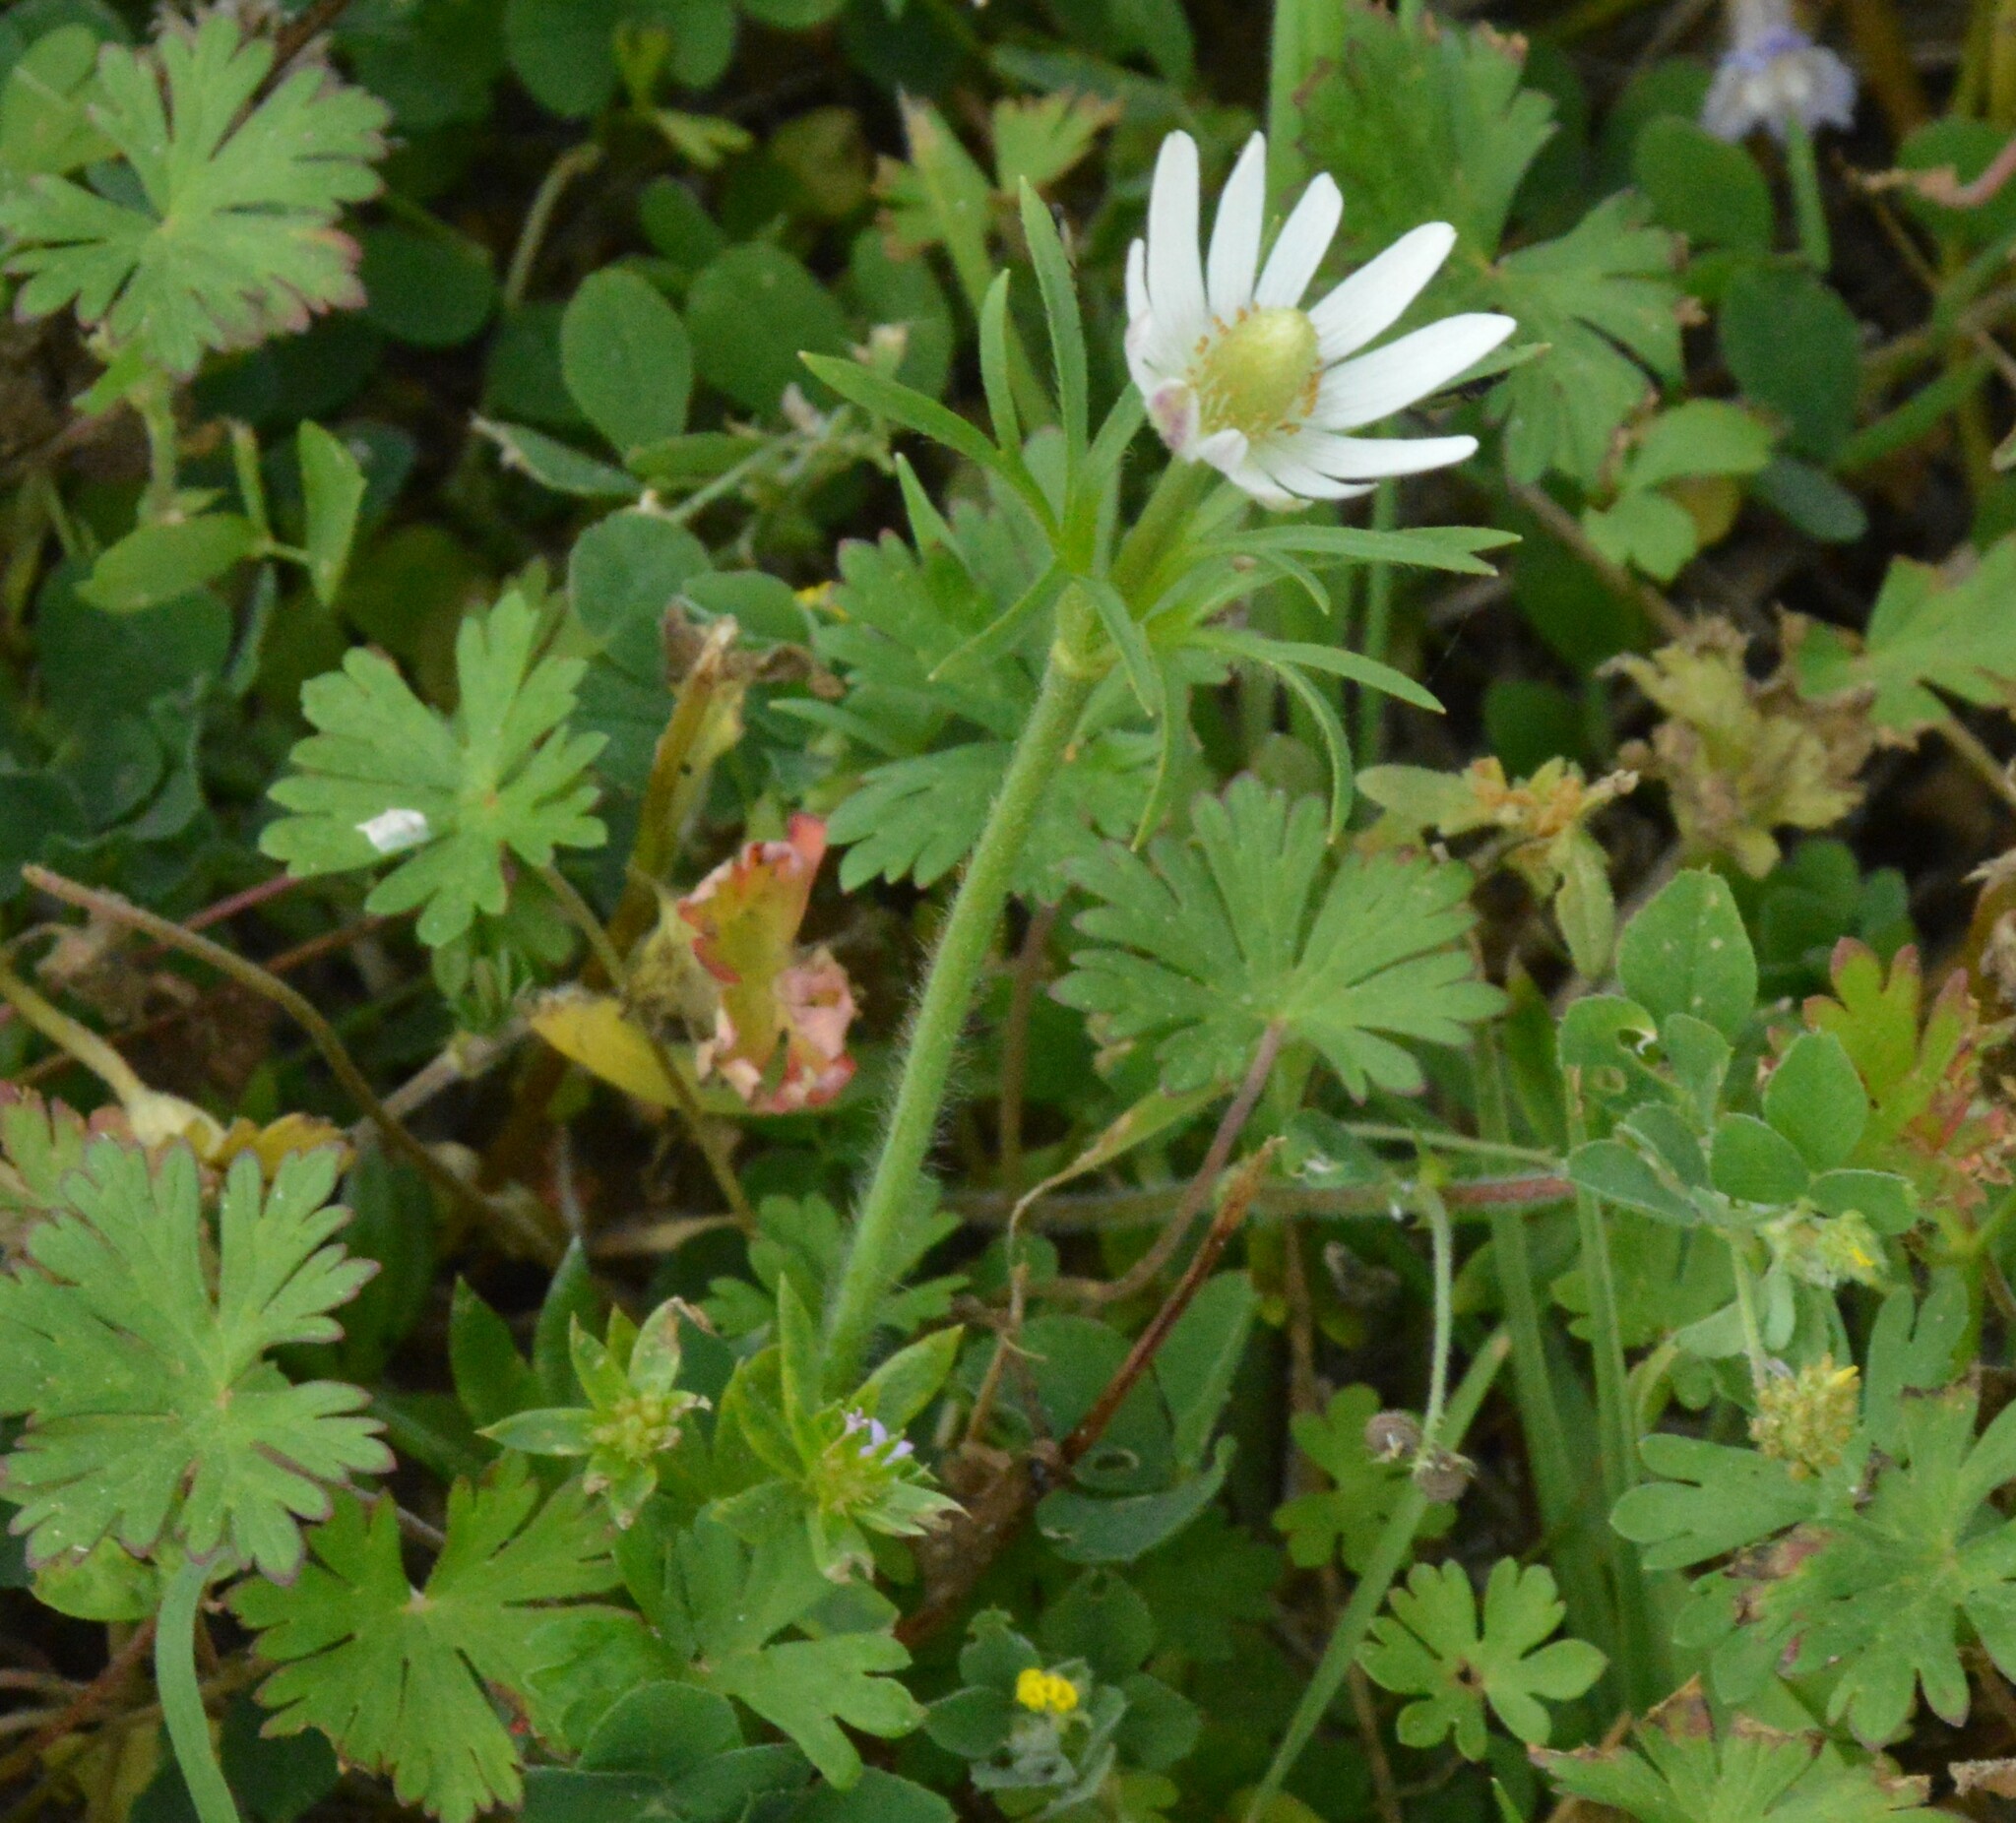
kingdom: Plantae
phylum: Tracheophyta
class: Magnoliopsida
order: Ranunculales
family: Ranunculaceae
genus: Anemone
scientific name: Anemone berlandieri
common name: Ten-petal anemone
